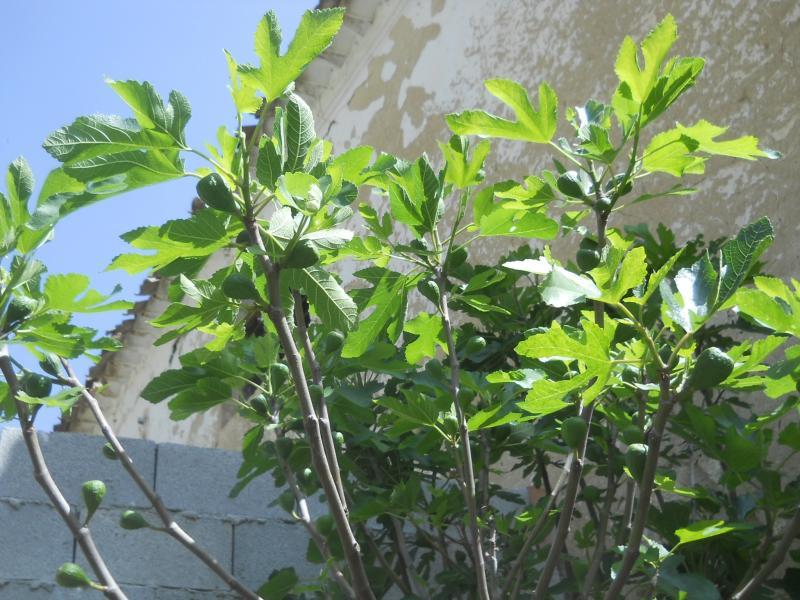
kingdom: Plantae
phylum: Tracheophyta
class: Magnoliopsida
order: Rosales
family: Moraceae
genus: Ficus
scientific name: Ficus carica
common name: Fig
